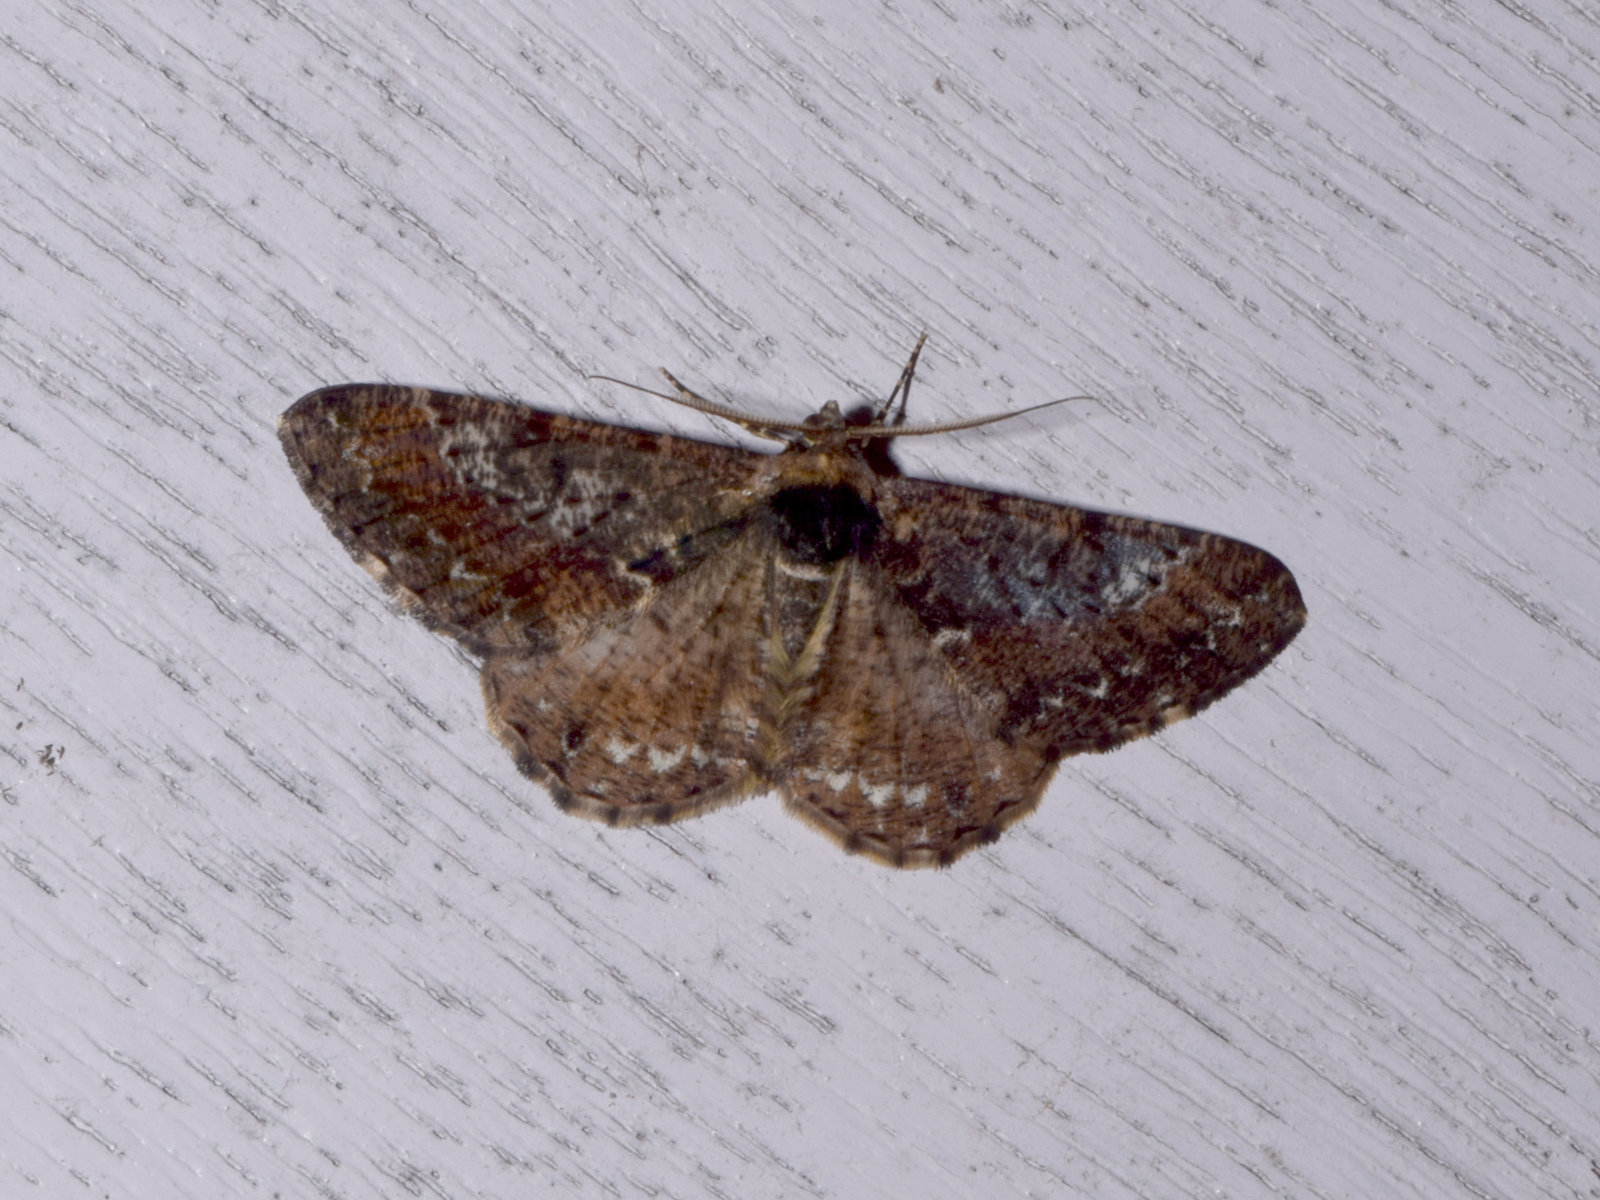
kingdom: Animalia
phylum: Arthropoda
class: Insecta
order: Lepidoptera
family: Geometridae
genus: Harutalcis
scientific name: Harutalcis godavariensis
